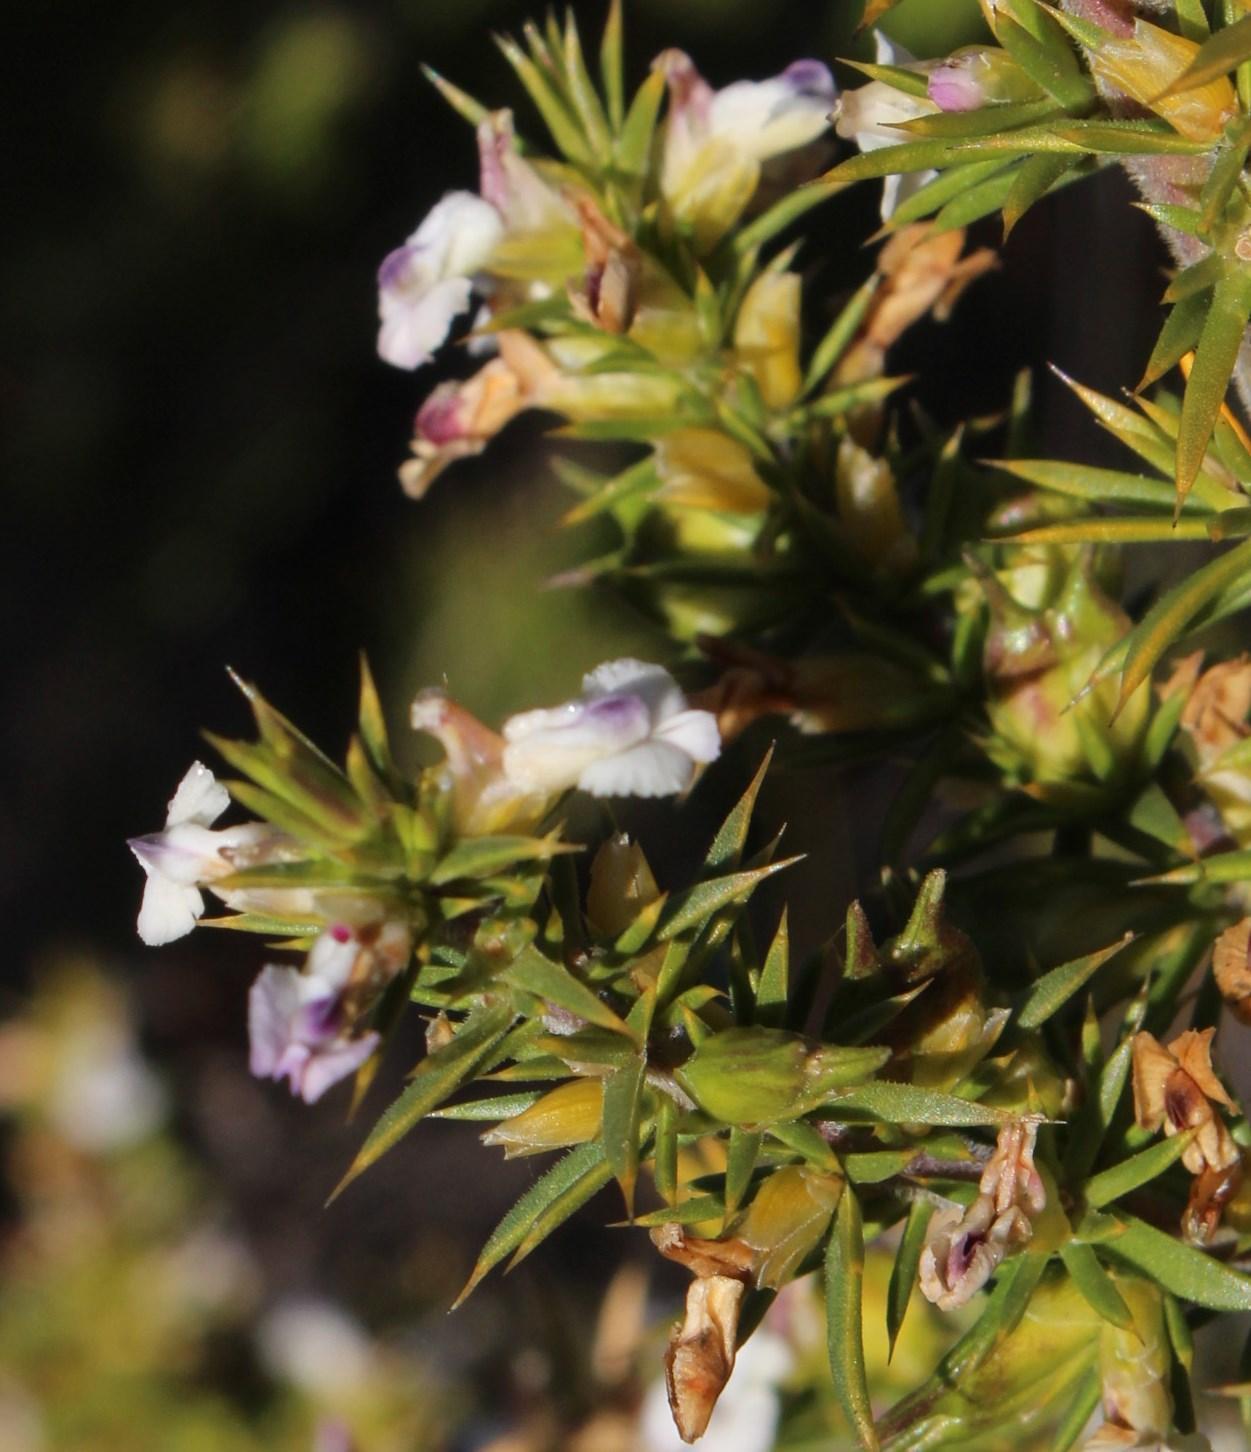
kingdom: Plantae
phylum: Tracheophyta
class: Magnoliopsida
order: Fabales
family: Polygalaceae
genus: Muraltia
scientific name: Muraltia ericifolia
